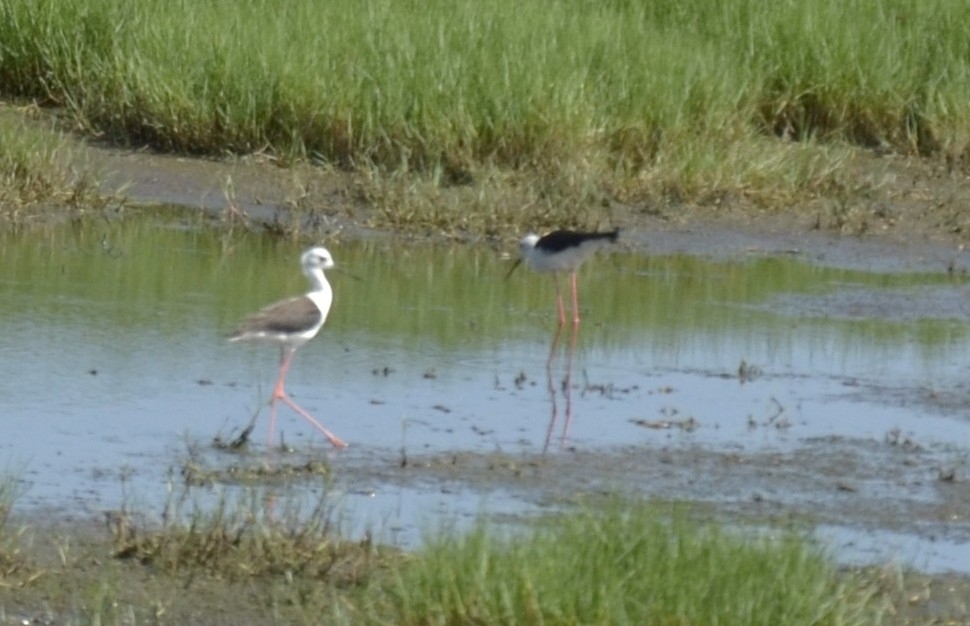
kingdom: Animalia
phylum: Chordata
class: Aves
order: Charadriiformes
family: Recurvirostridae
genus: Himantopus
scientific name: Himantopus himantopus
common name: Black-winged stilt
